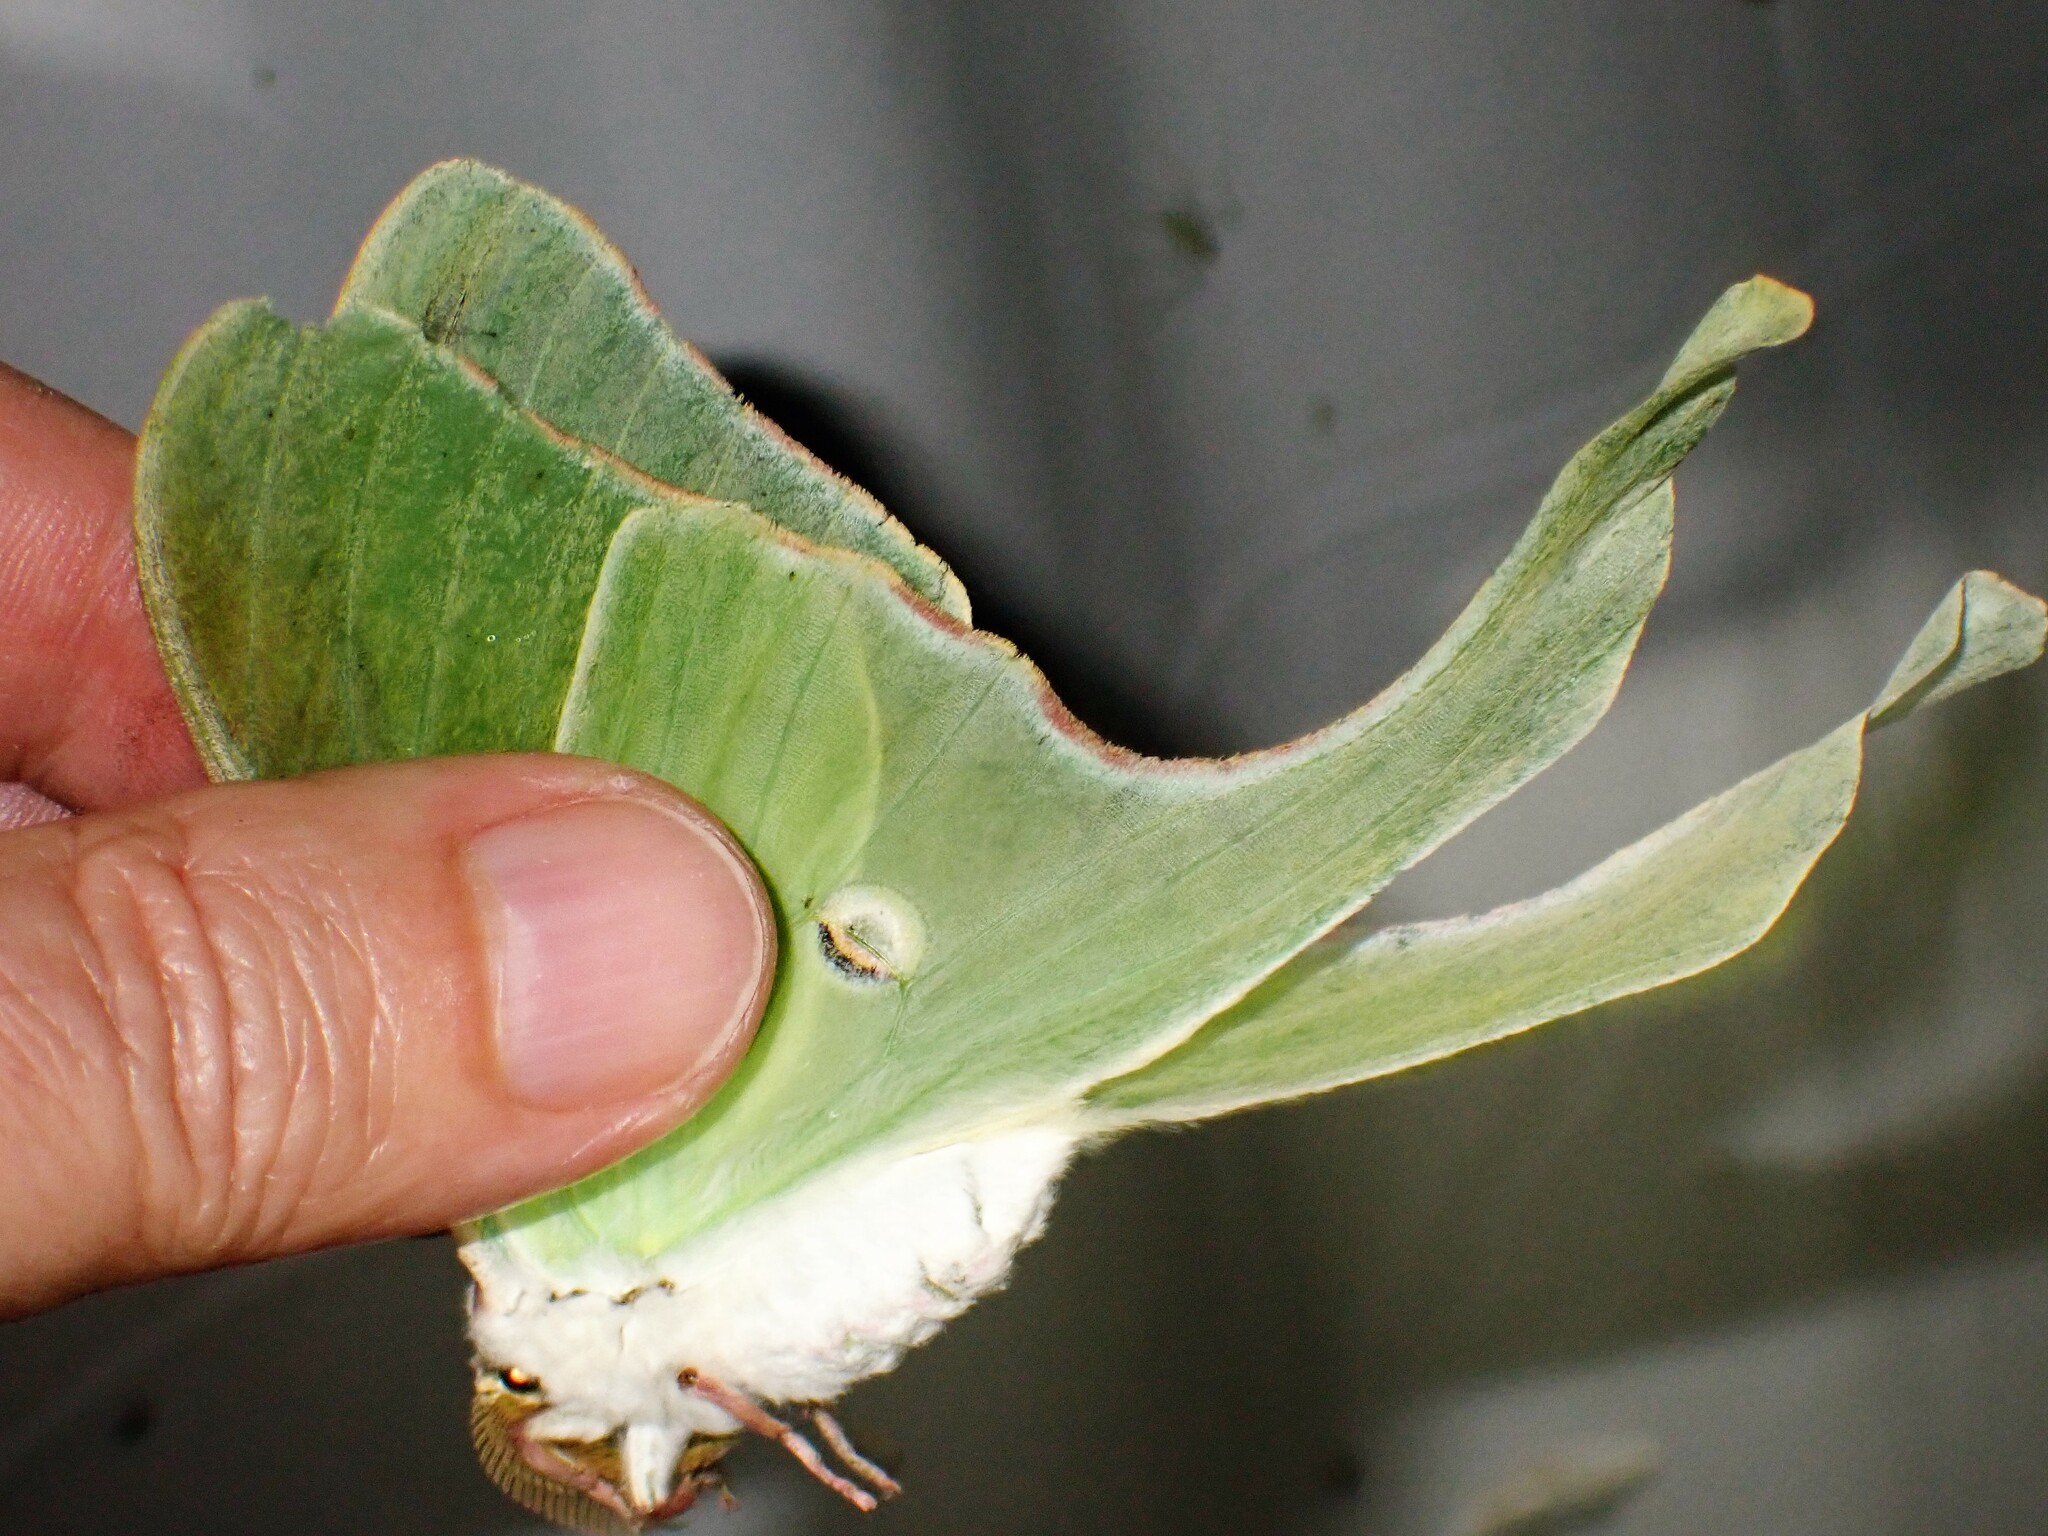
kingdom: Animalia
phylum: Arthropoda
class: Insecta
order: Lepidoptera
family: Saturniidae
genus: Actias
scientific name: Actias luna
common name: Luna moth
